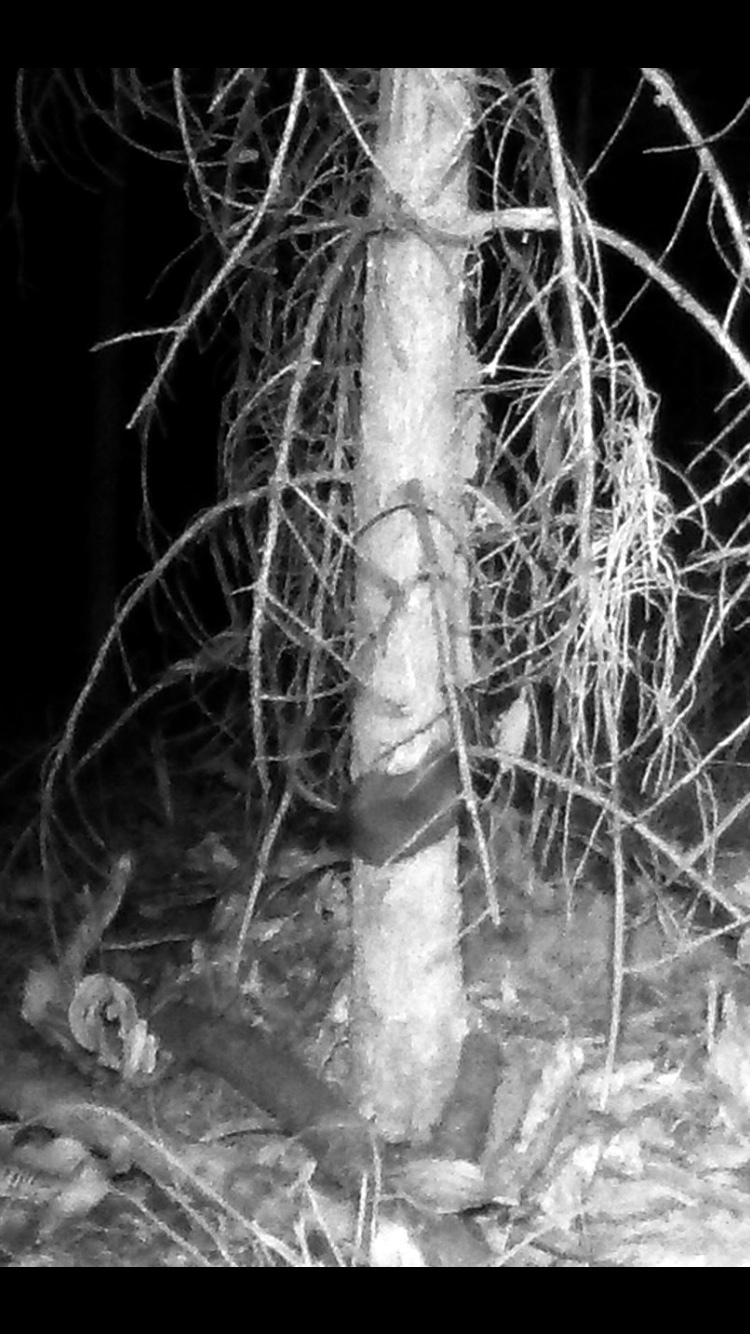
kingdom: Animalia
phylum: Chordata
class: Mammalia
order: Rodentia
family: Muridae
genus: Rattus
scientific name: Rattus rattus
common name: Black rat
